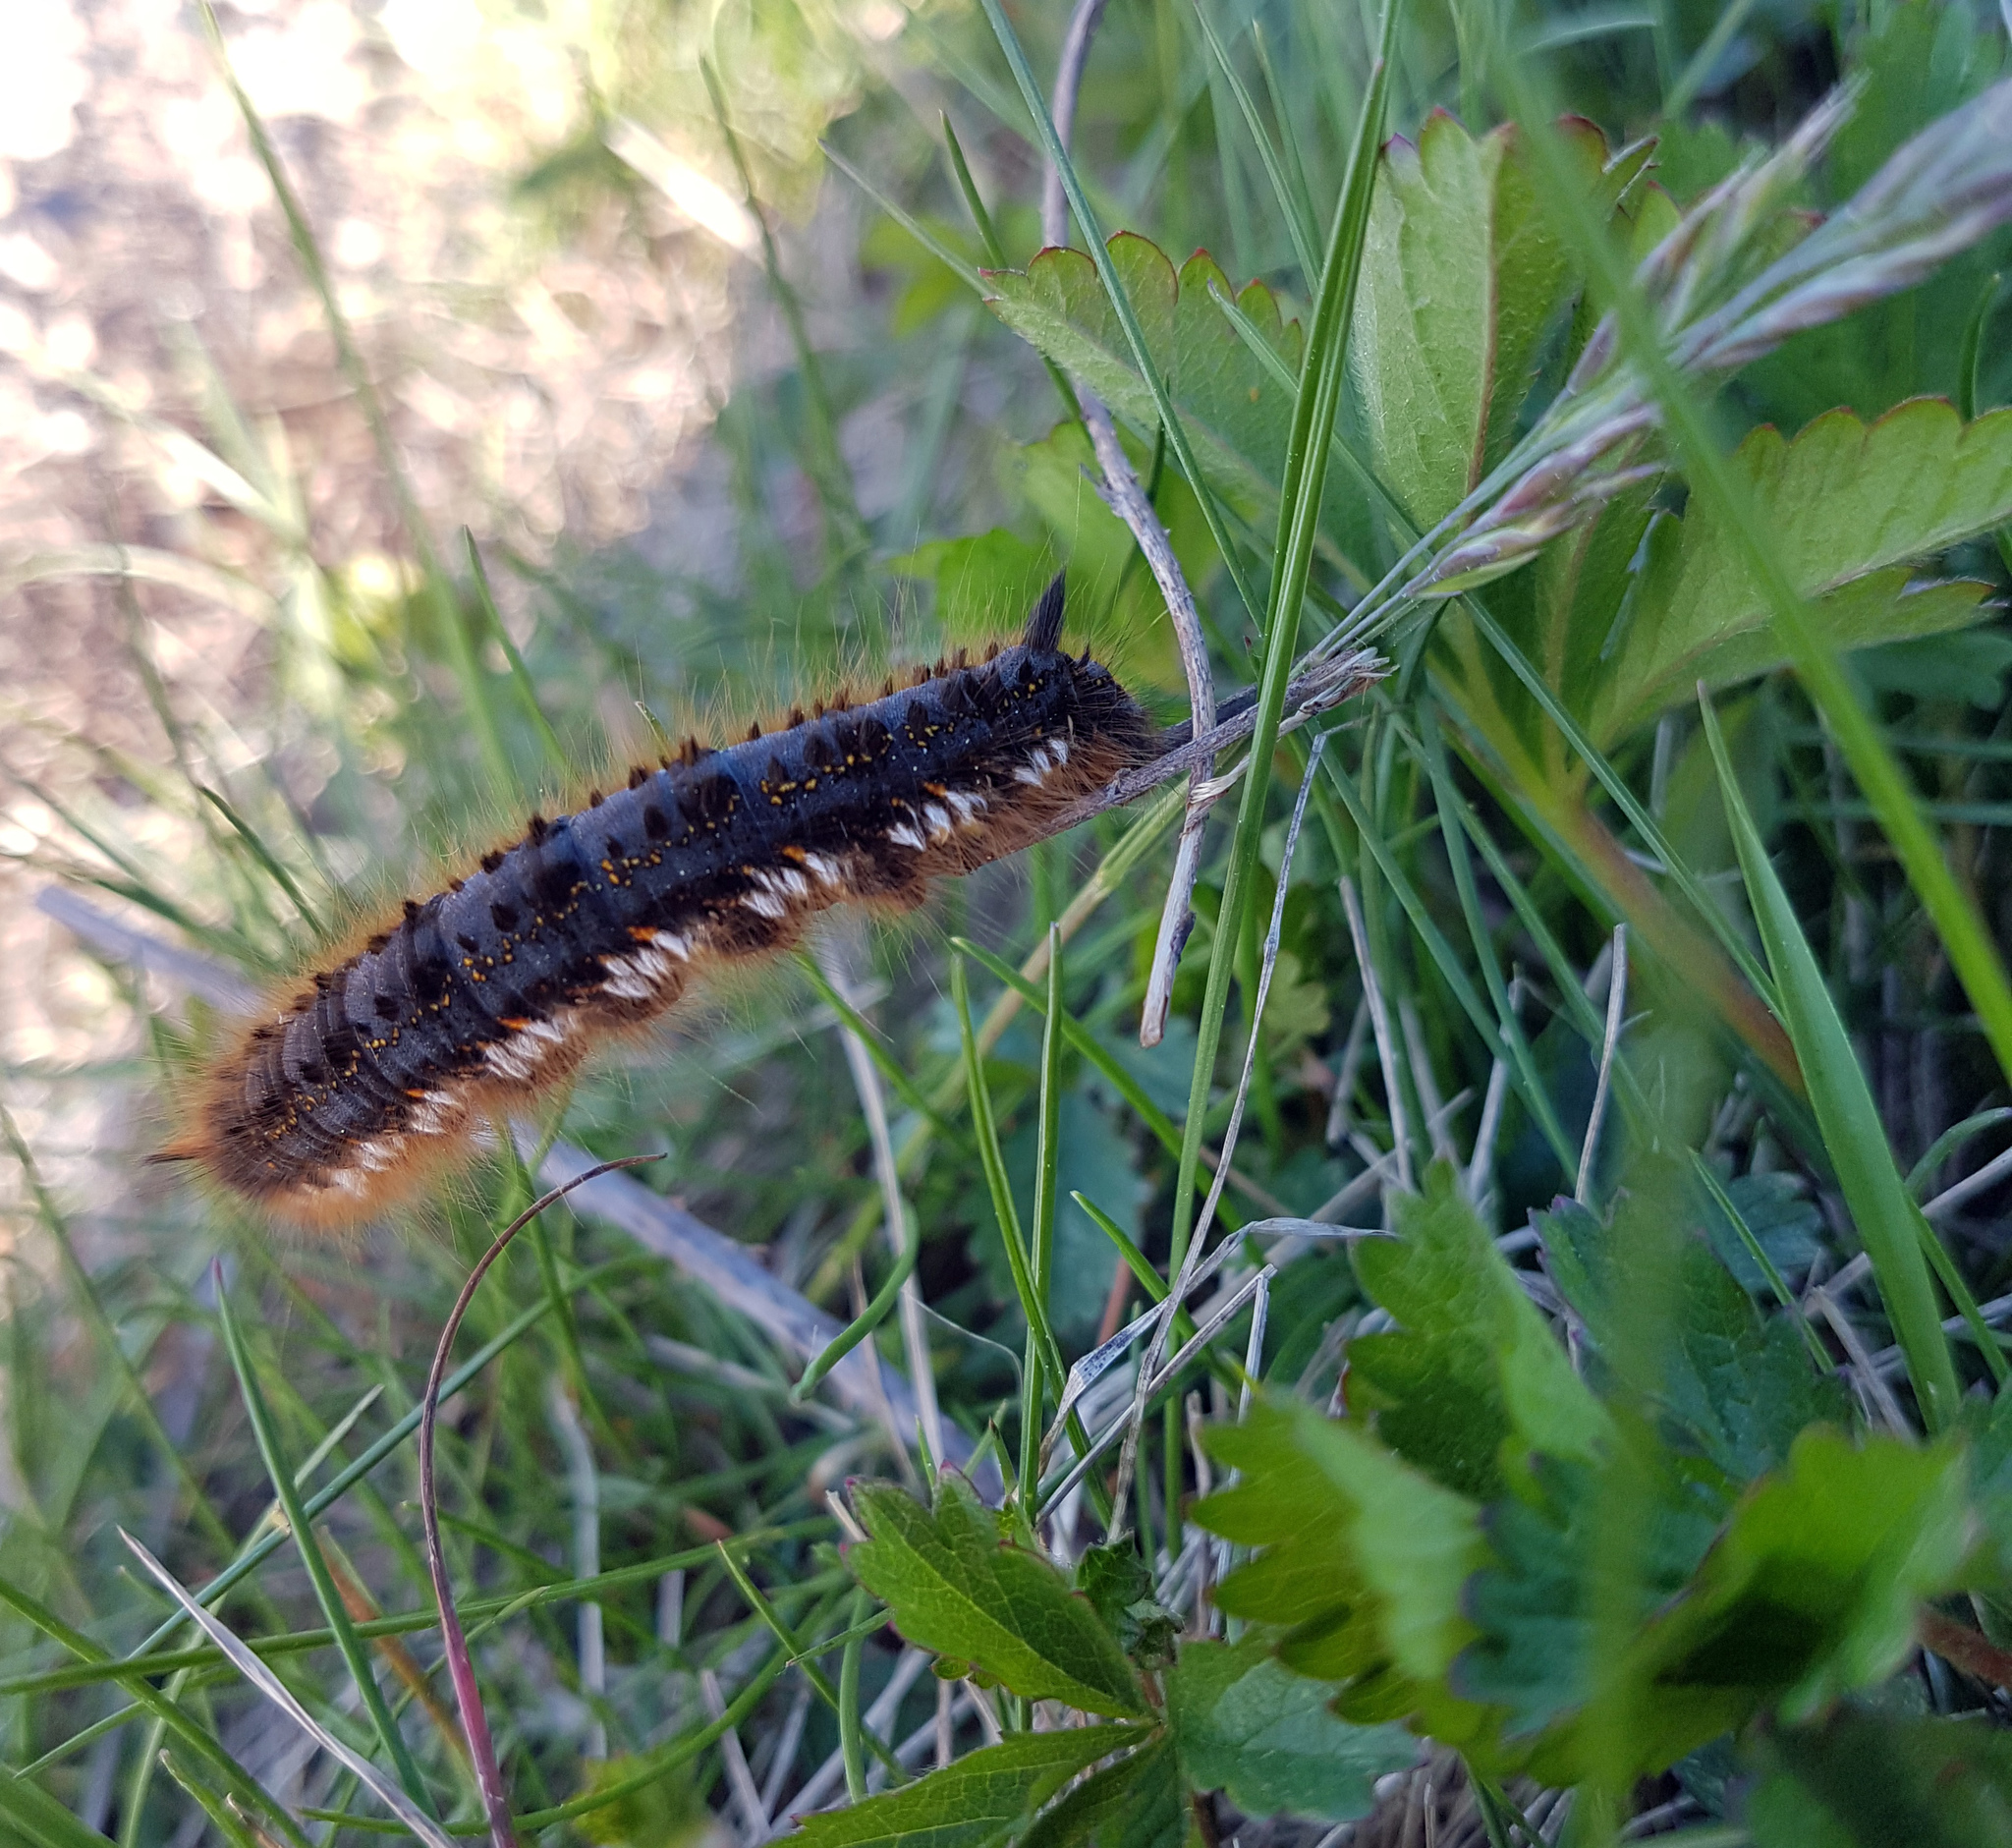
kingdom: Animalia
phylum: Arthropoda
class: Insecta
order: Lepidoptera
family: Lasiocampidae
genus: Euthrix
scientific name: Euthrix potatoria
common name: Drinker
